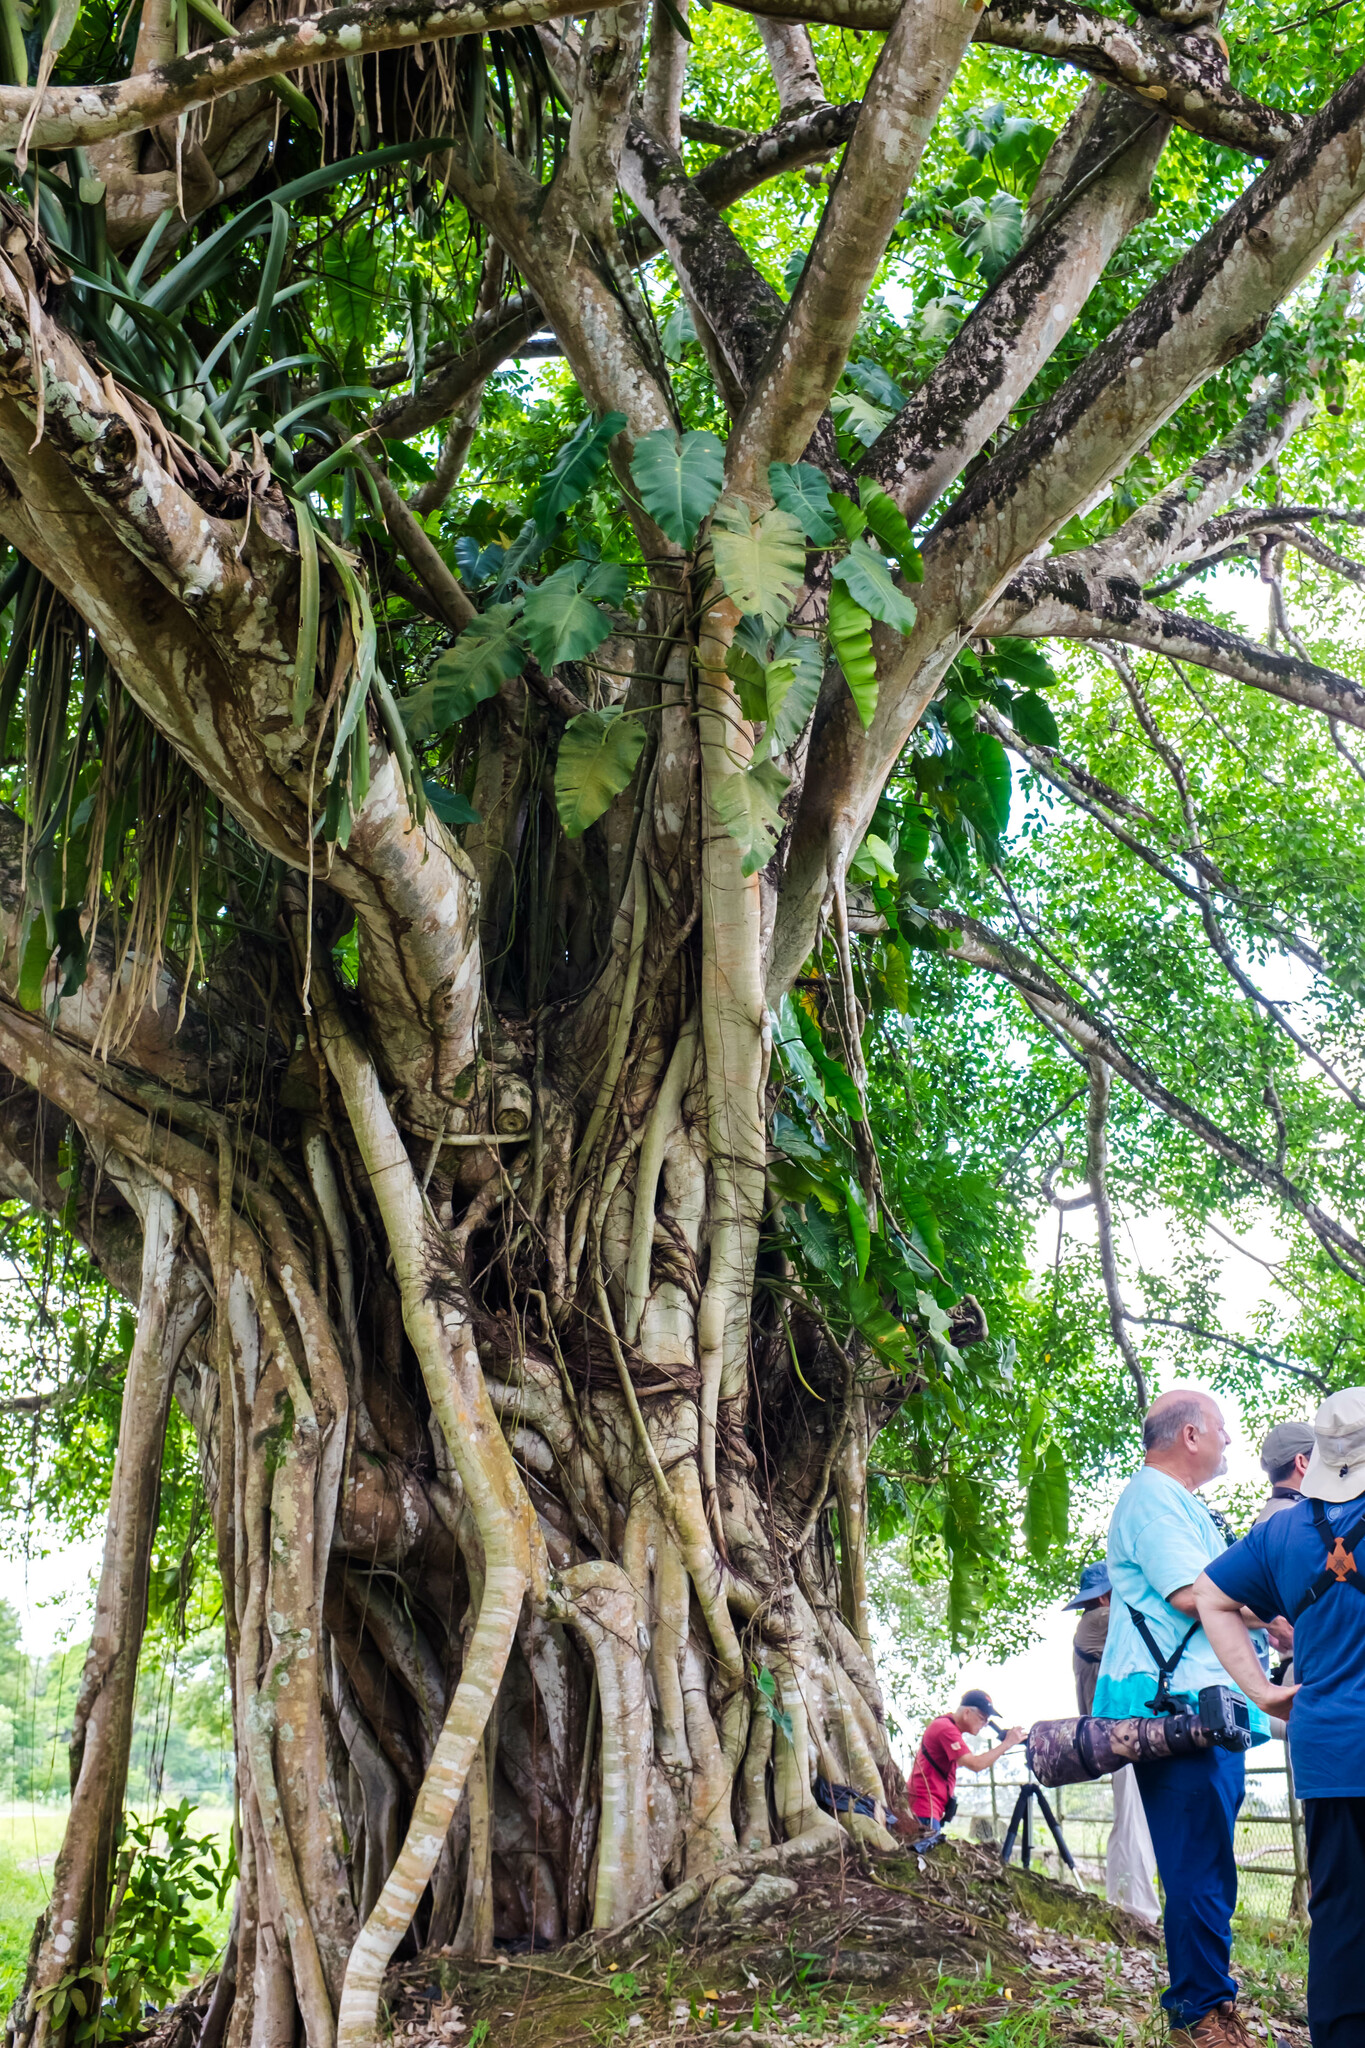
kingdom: Plantae
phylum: Tracheophyta
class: Magnoliopsida
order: Rosales
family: Moraceae
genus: Ficus
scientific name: Ficus lutea
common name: Giant-leaved fig
